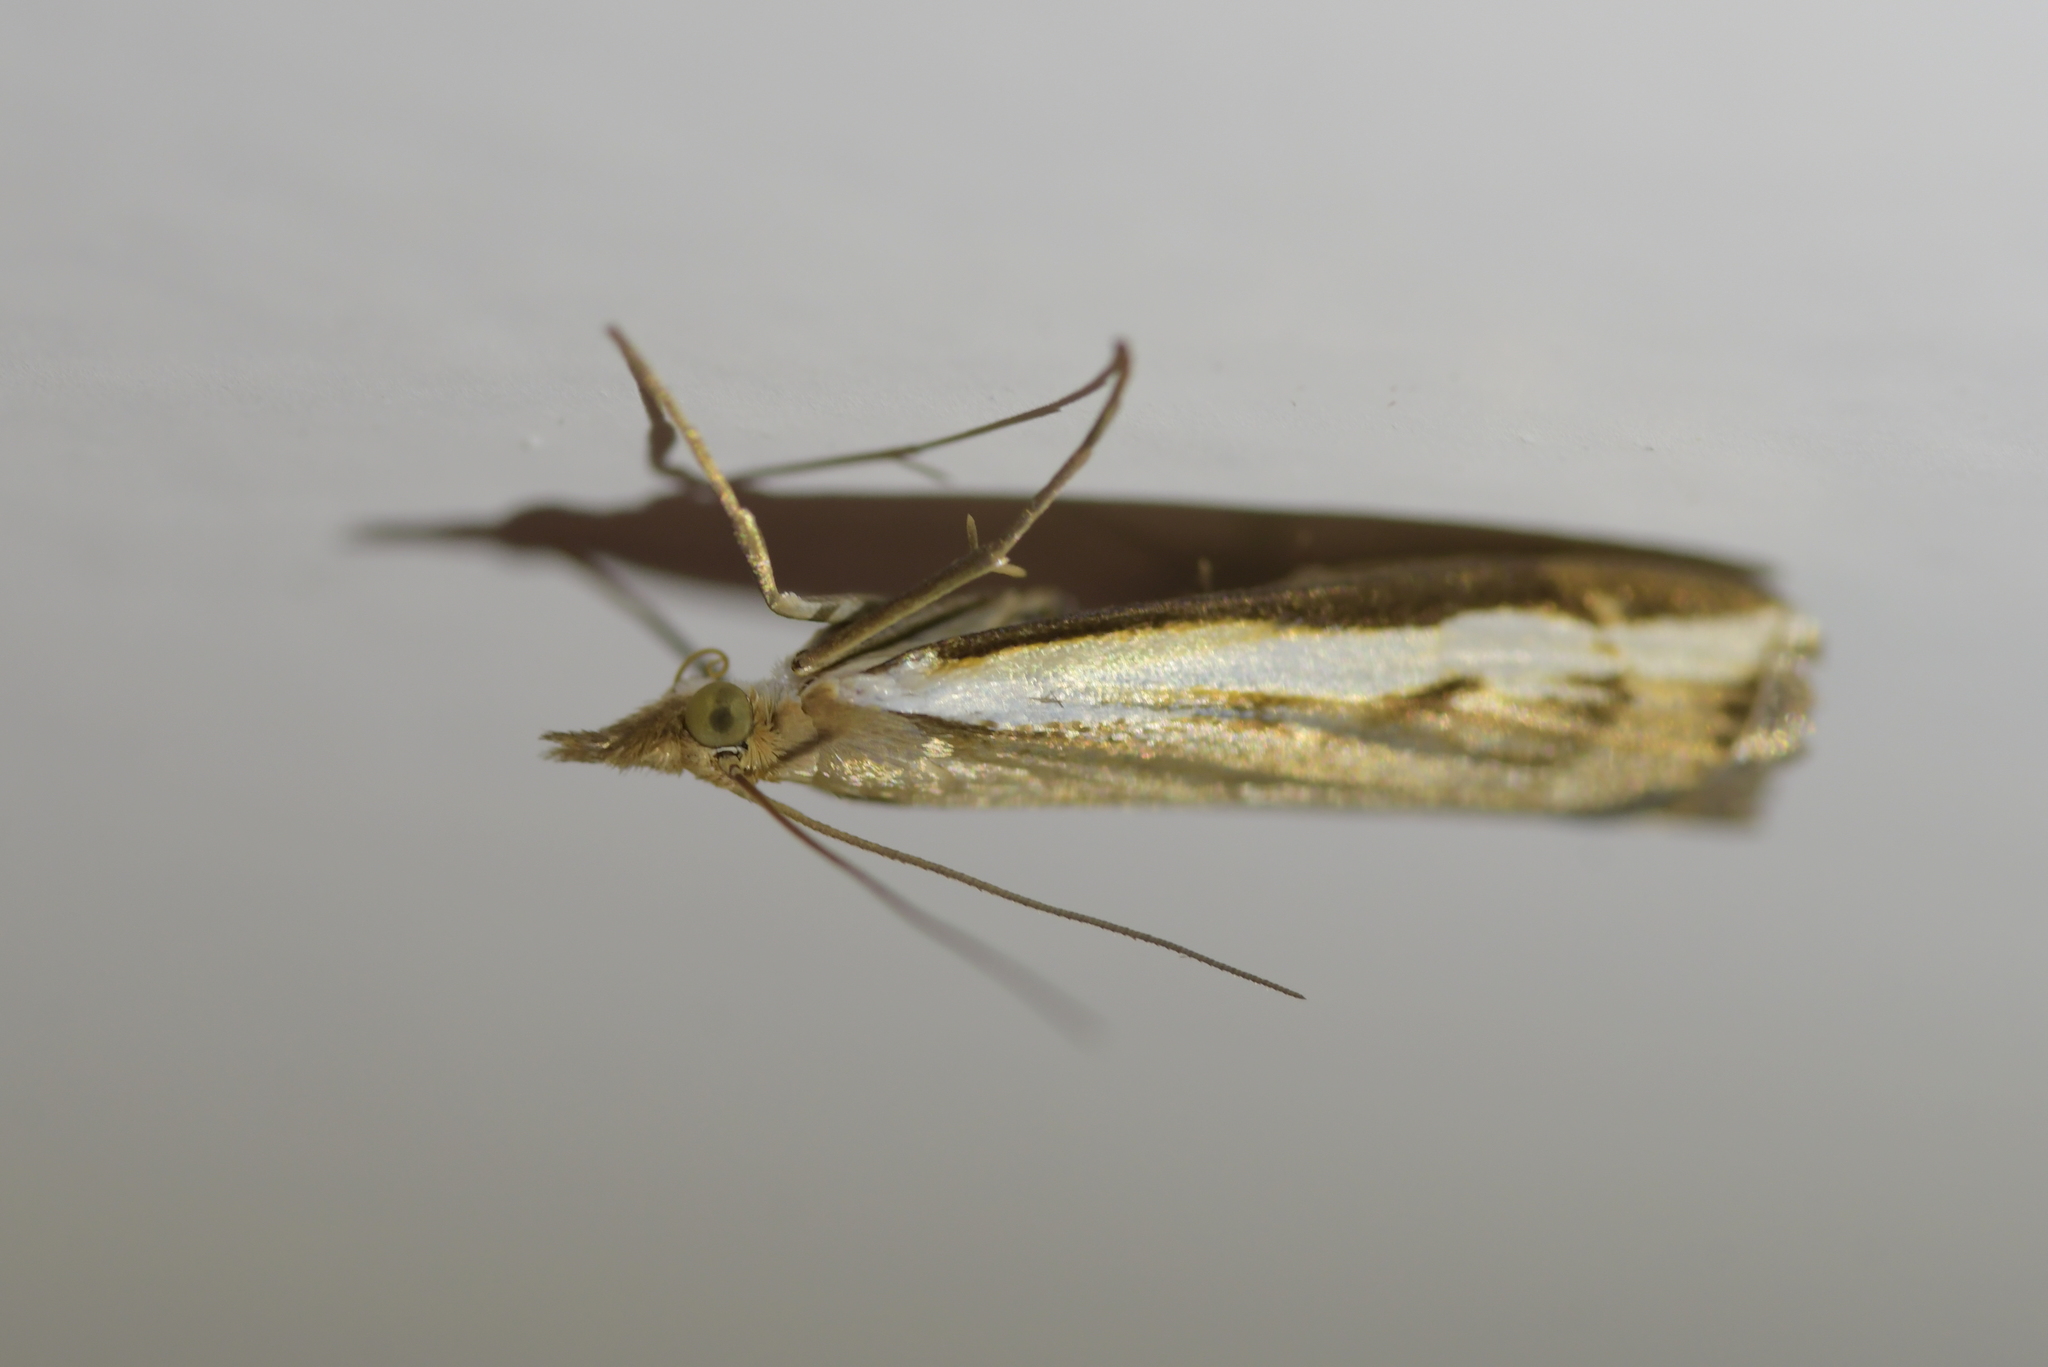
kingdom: Animalia
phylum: Arthropoda
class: Insecta
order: Lepidoptera
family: Crambidae
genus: Orocrambus
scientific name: Orocrambus flexuosellus
